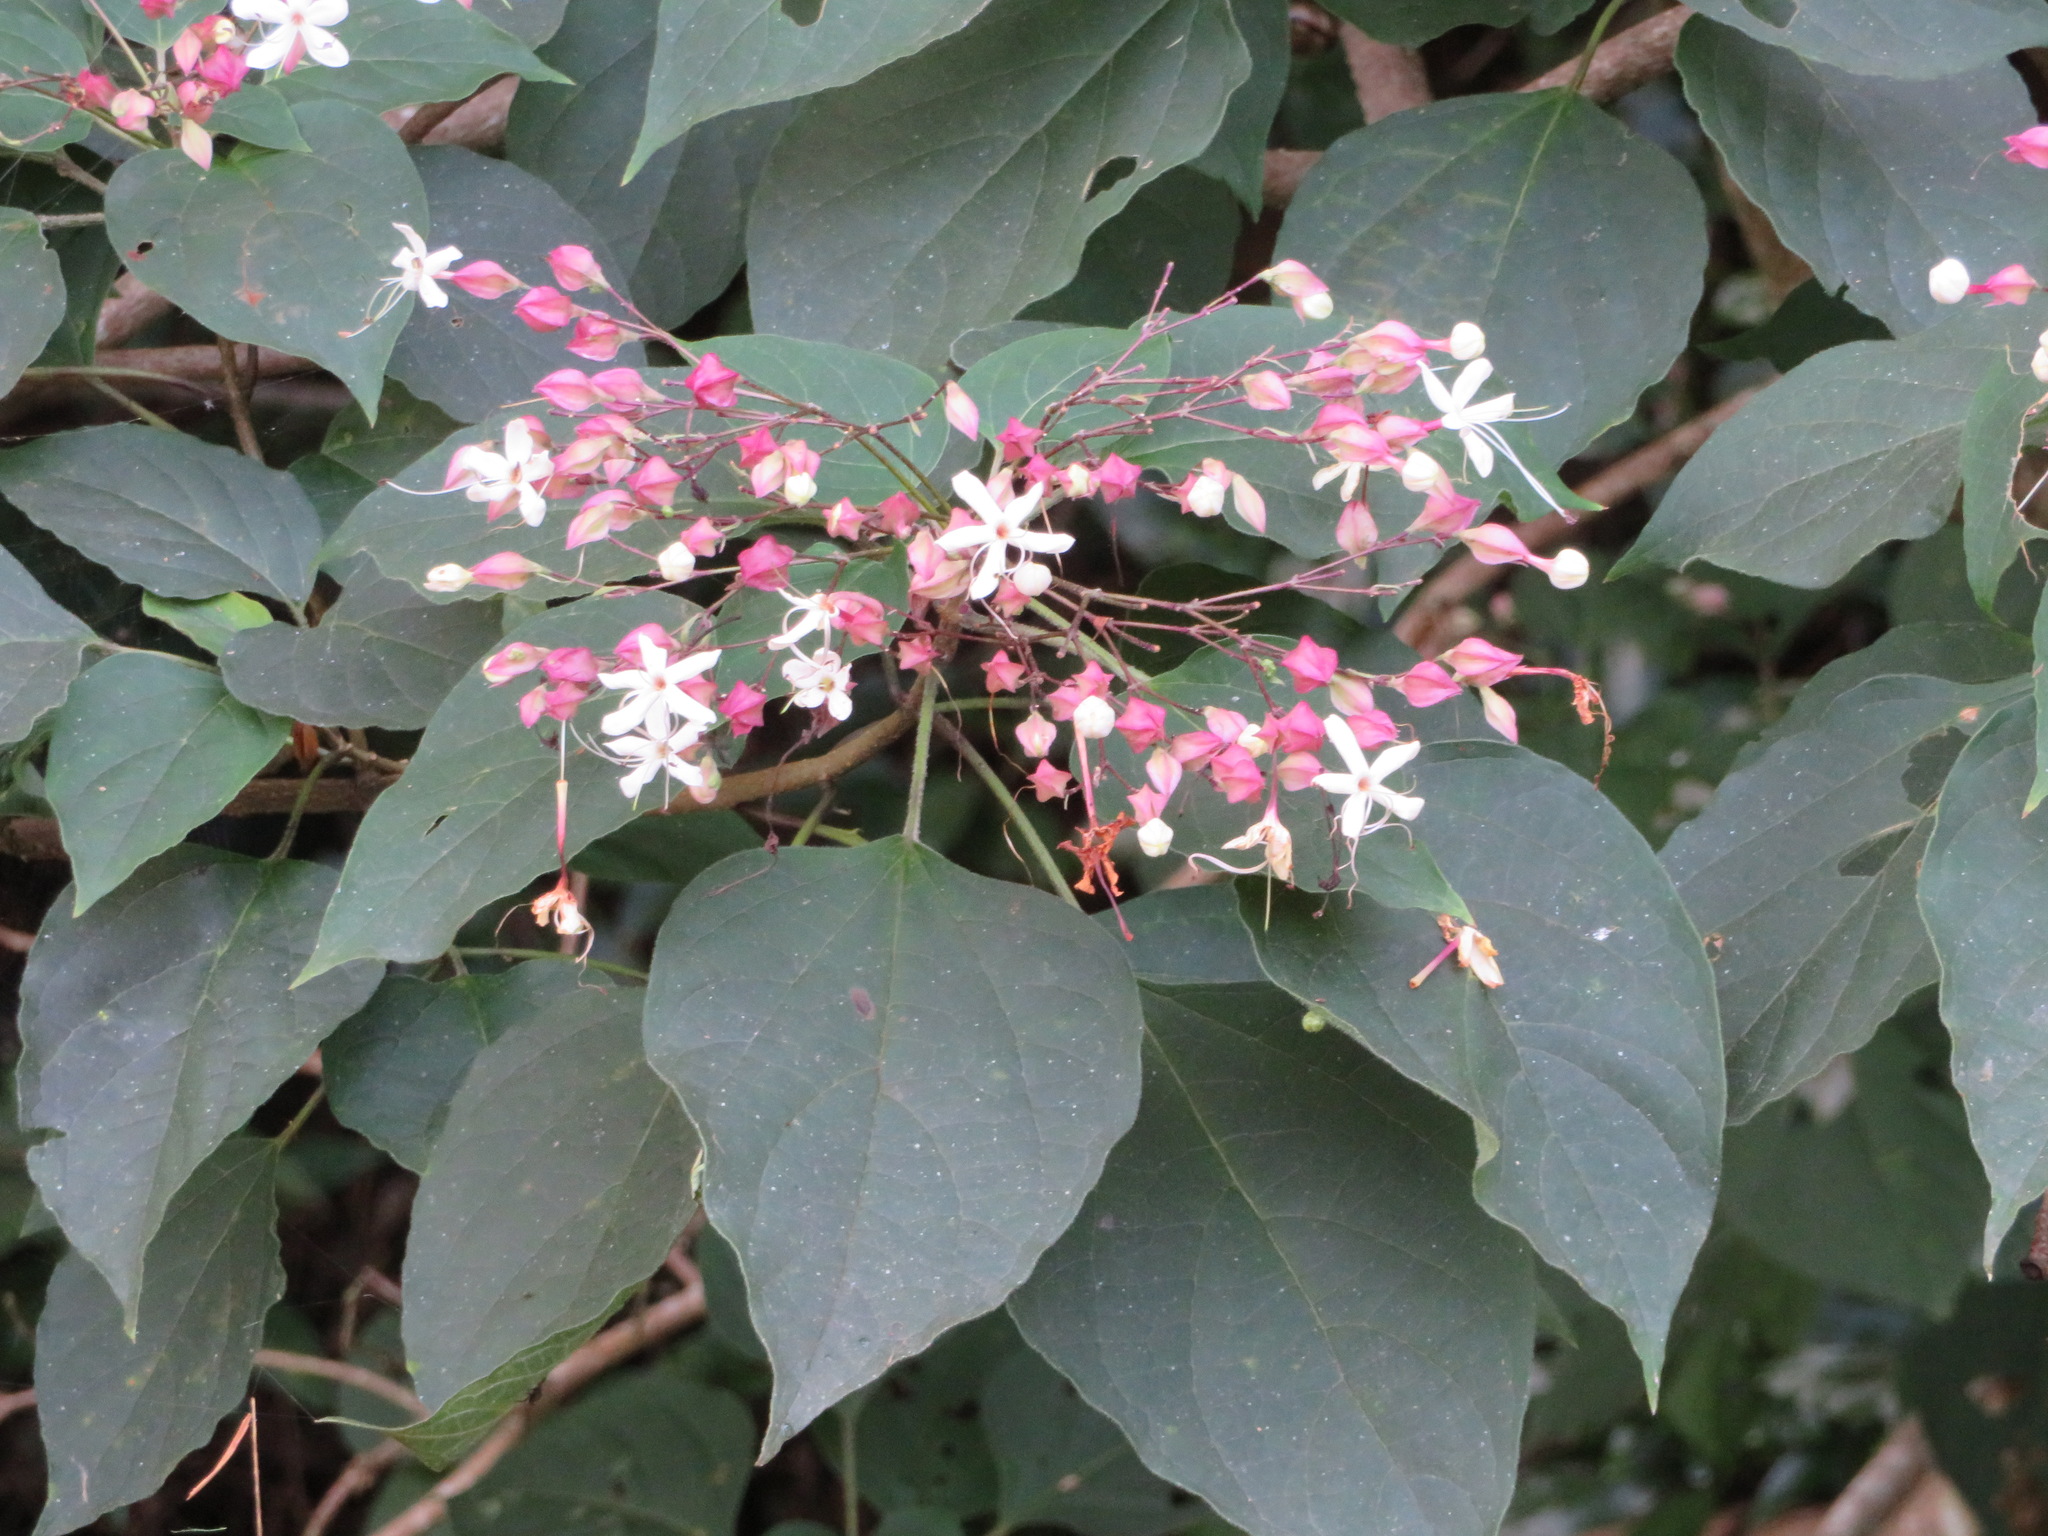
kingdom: Plantae
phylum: Tracheophyta
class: Magnoliopsida
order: Lamiales
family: Lamiaceae
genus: Clerodendrum
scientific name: Clerodendrum trichotomum
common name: Harlequin glorybower
